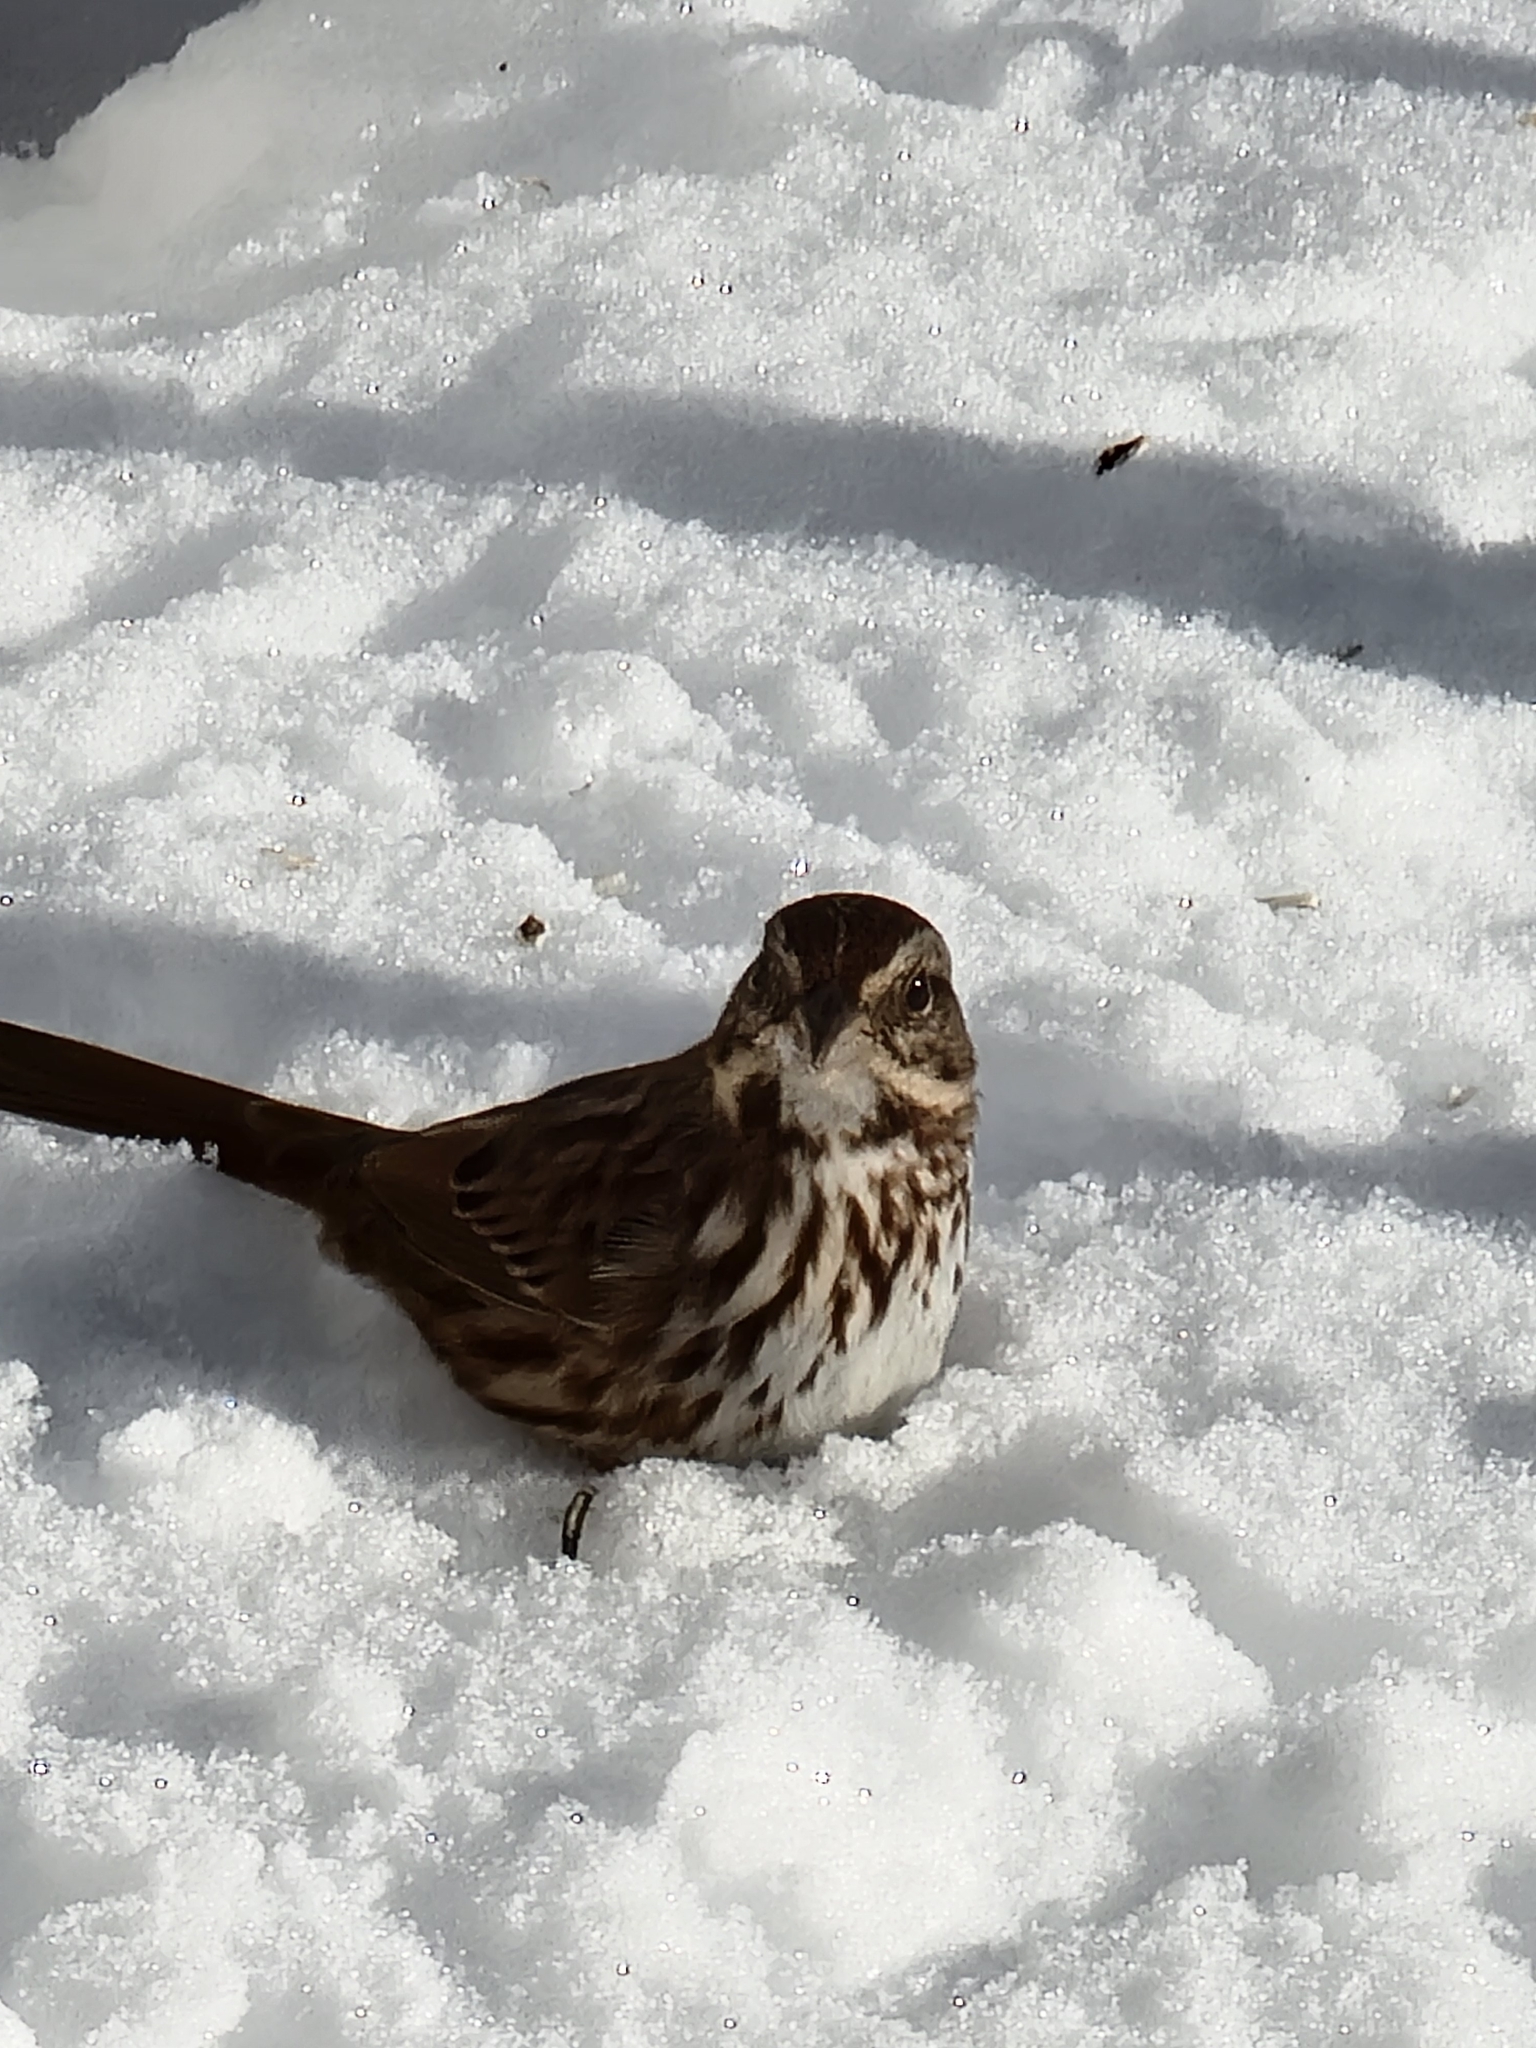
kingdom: Animalia
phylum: Chordata
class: Aves
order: Passeriformes
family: Passerellidae
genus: Melospiza
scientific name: Melospiza melodia
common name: Song sparrow
